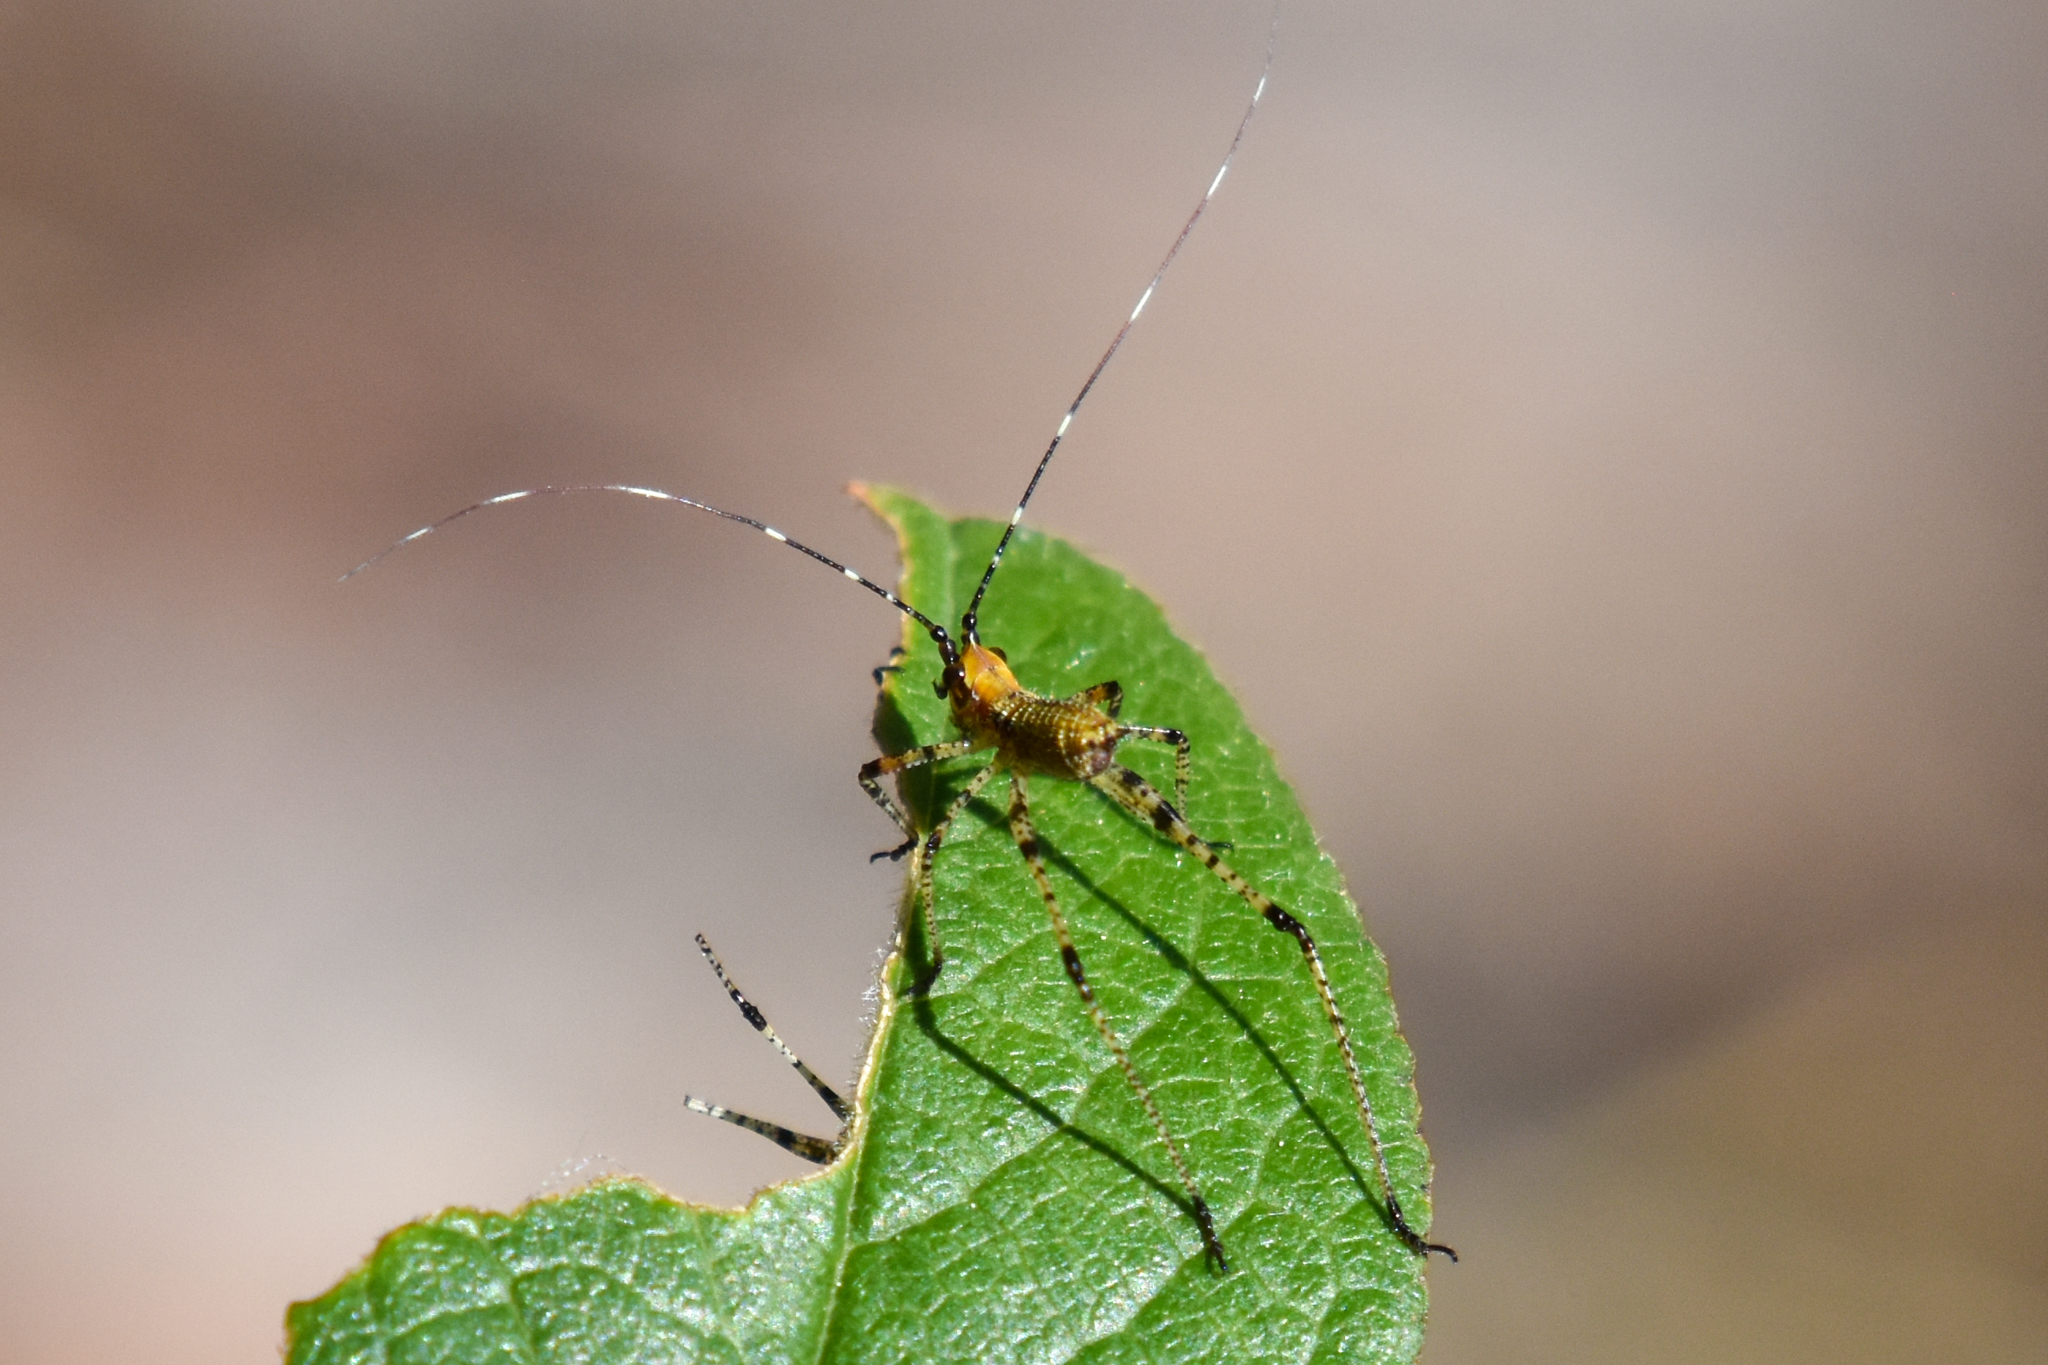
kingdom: Animalia
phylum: Arthropoda
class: Insecta
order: Orthoptera
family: Tettigoniidae
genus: Scudderia
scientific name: Scudderia furcata
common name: Fork-tailed bush katydid
